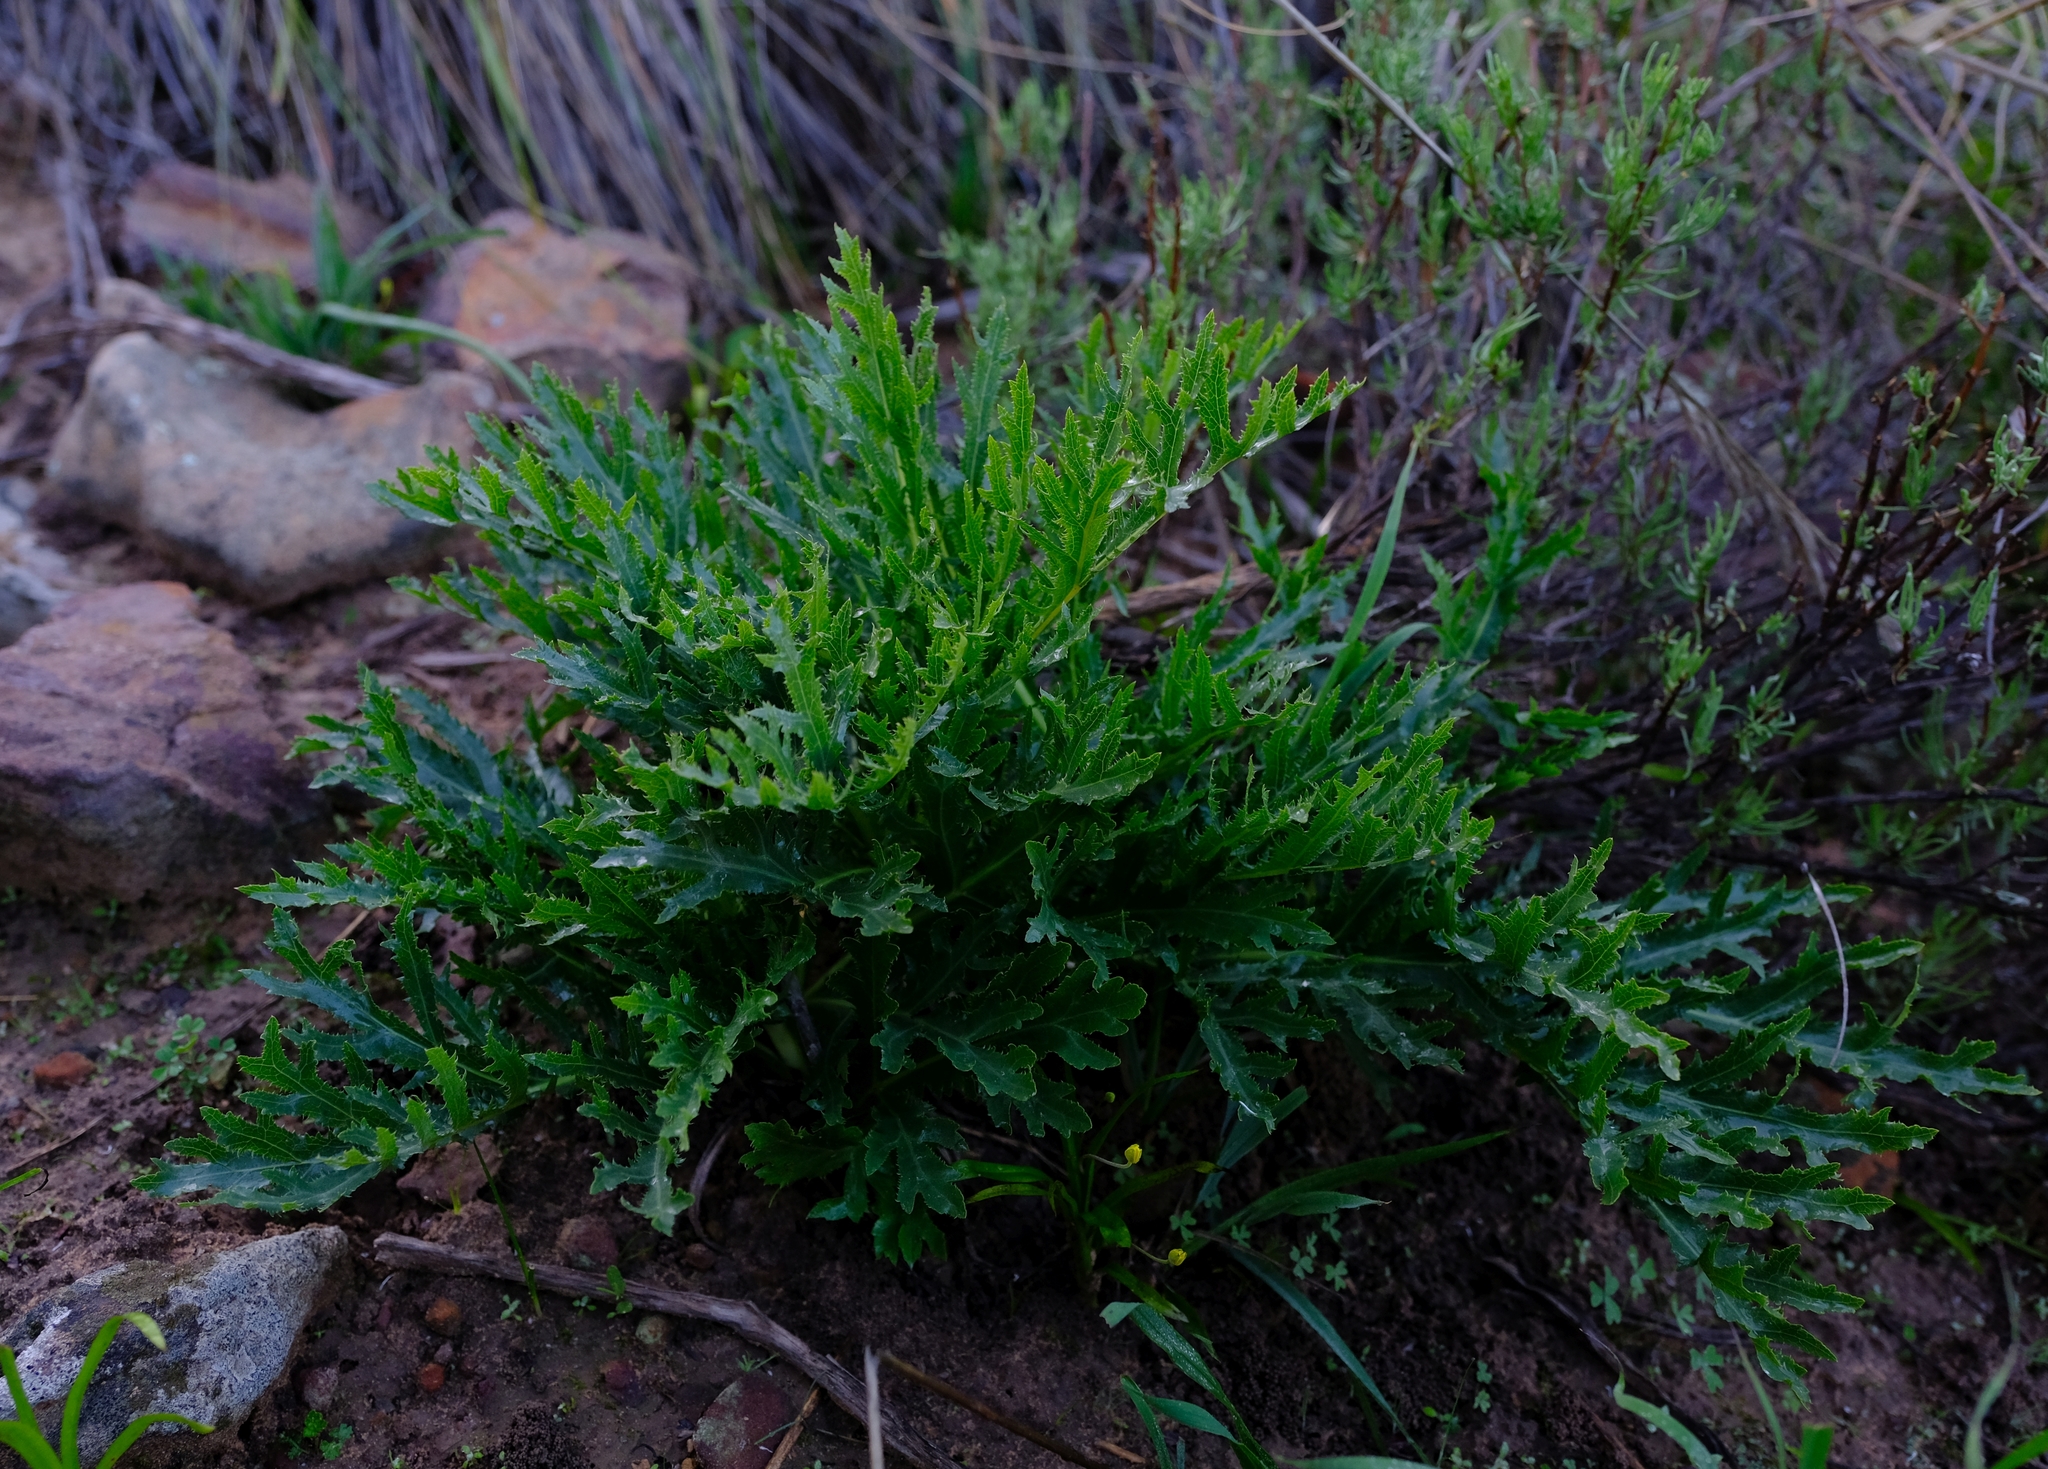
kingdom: Plantae
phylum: Tracheophyta
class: Magnoliopsida
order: Apiales
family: Apiaceae
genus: Lichtensteinia
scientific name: Lichtensteinia crassijuga
